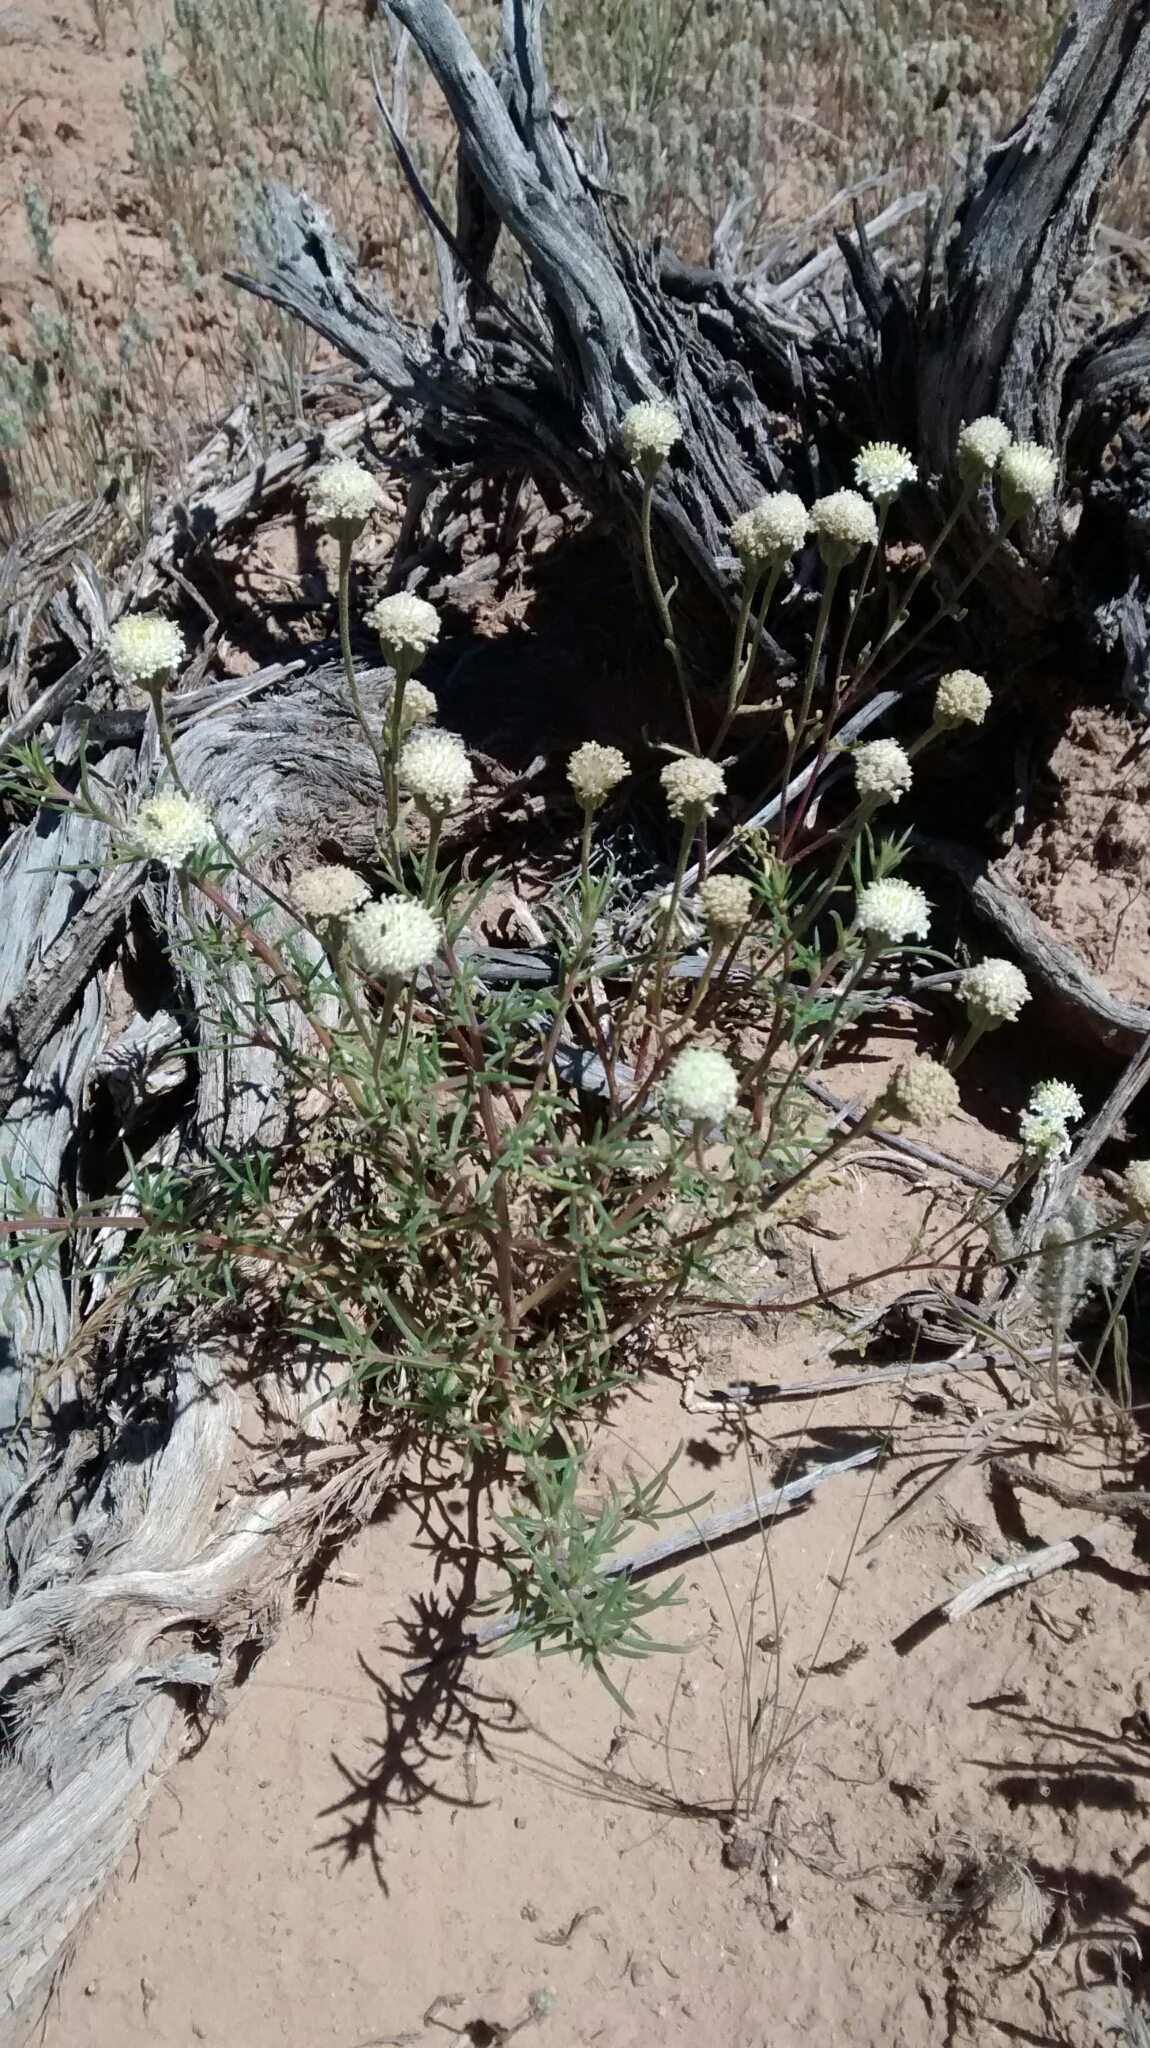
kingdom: Plantae
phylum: Tracheophyta
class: Magnoliopsida
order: Asterales
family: Asteraceae
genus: Chaenactis
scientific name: Chaenactis stevioides
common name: Desert pincushion
